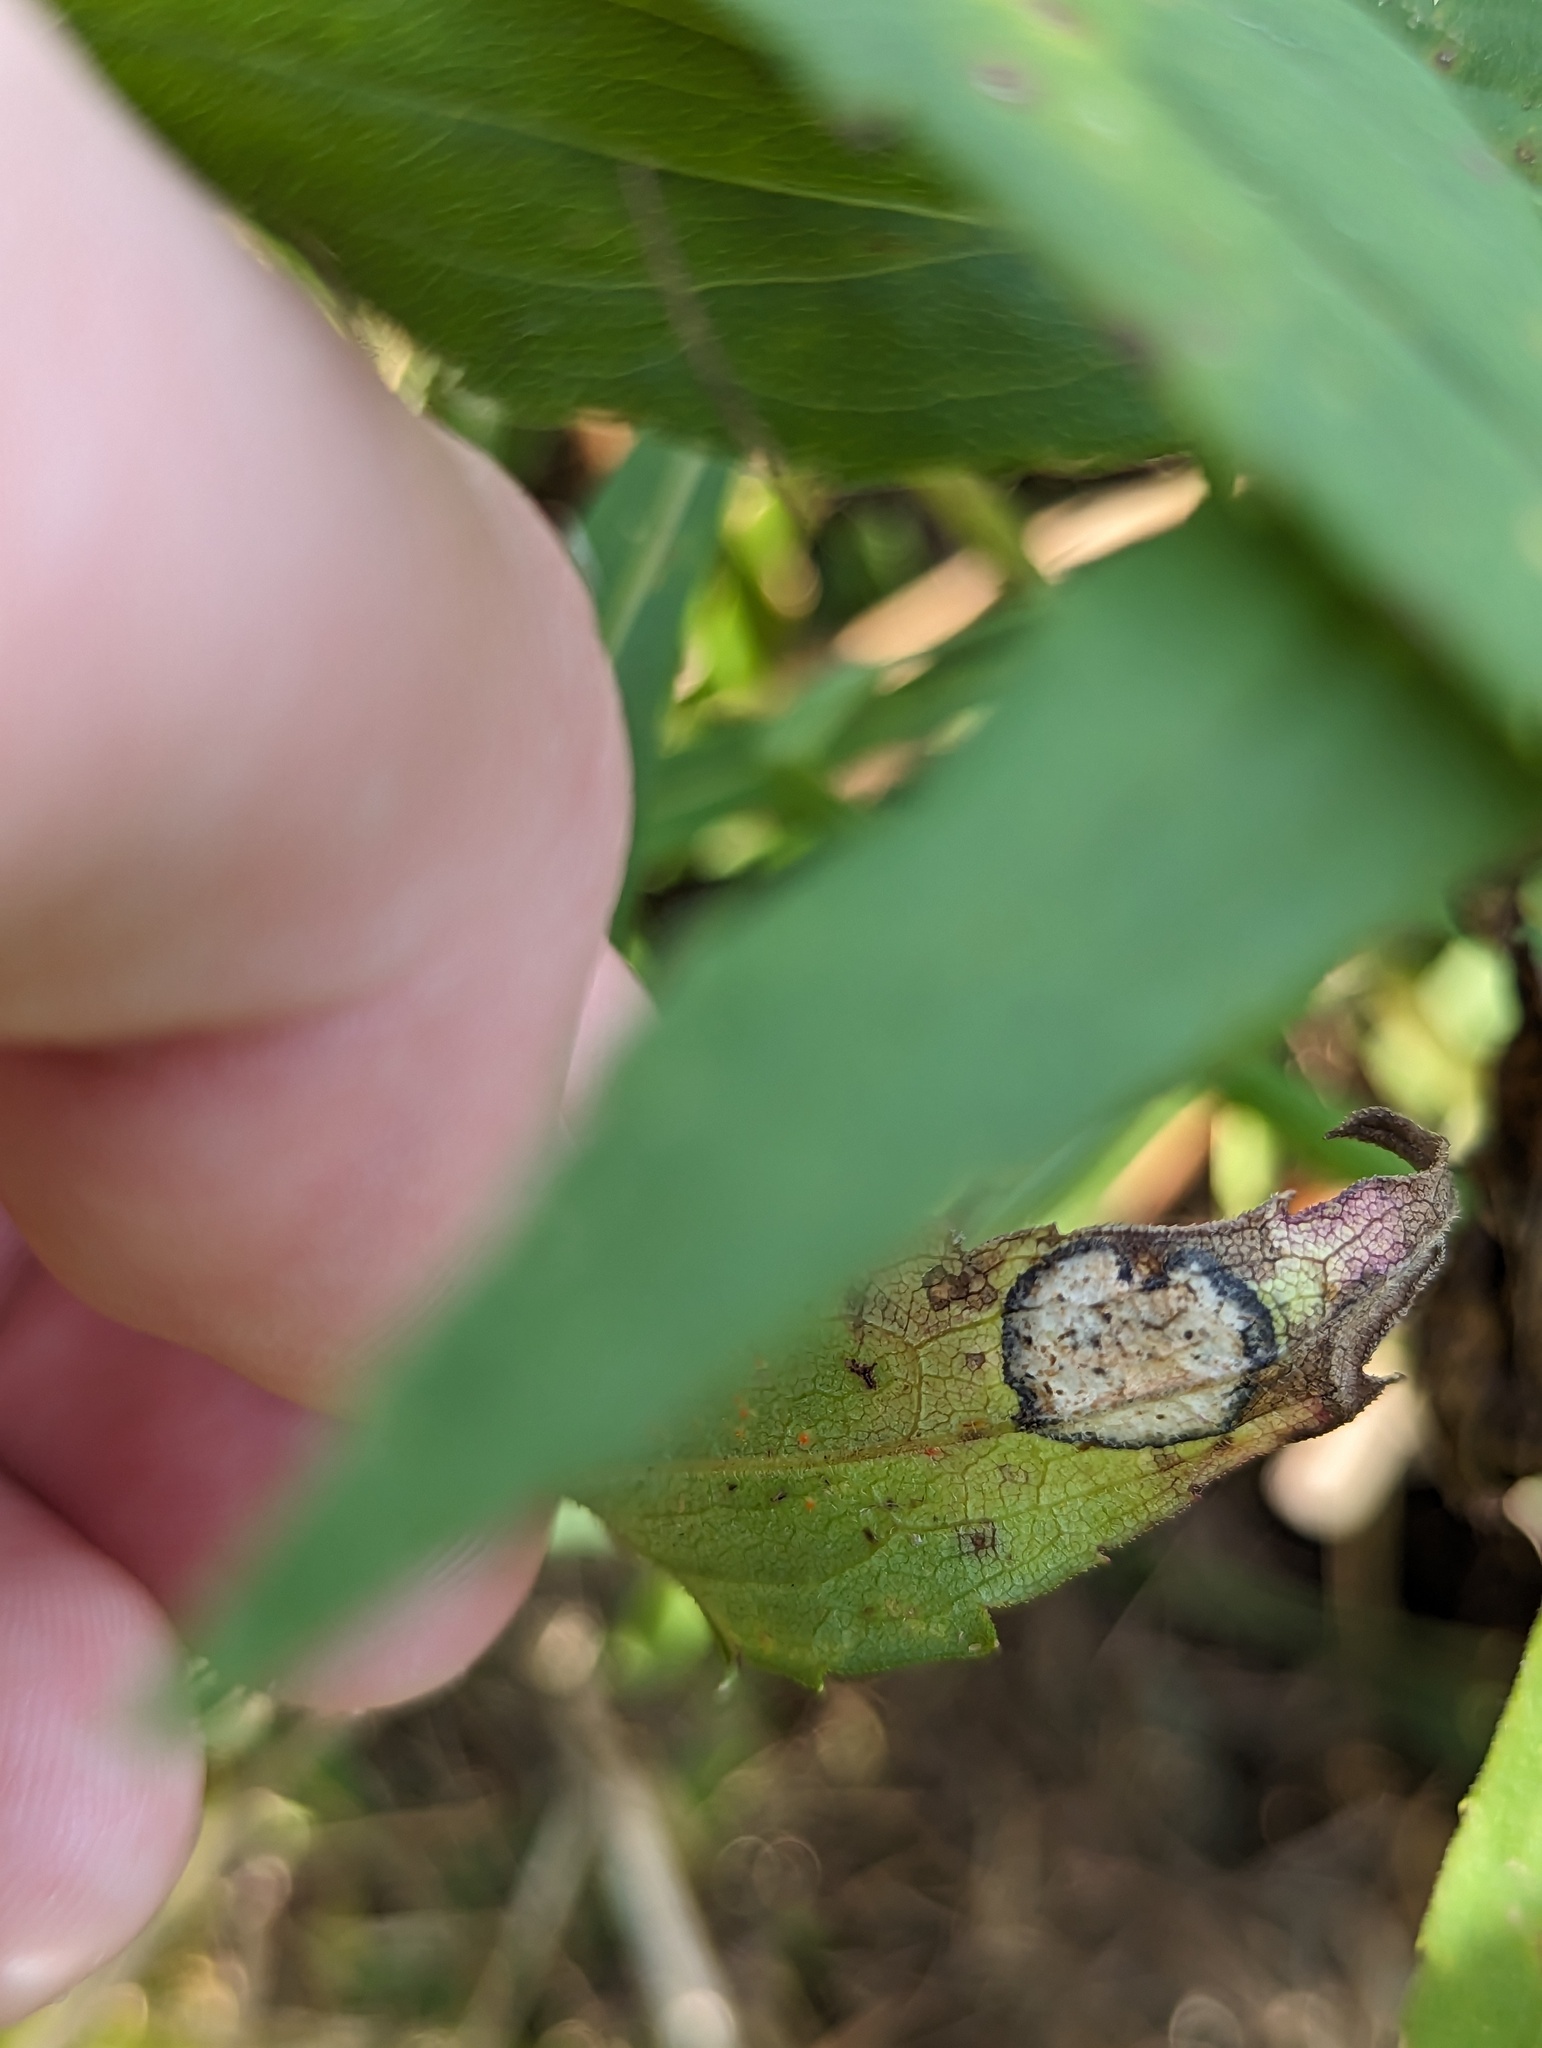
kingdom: Animalia
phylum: Arthropoda
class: Insecta
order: Diptera
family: Cecidomyiidae
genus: Asteromyia
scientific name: Asteromyia carbonifera
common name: Carbonifera goldenrod gall midge
